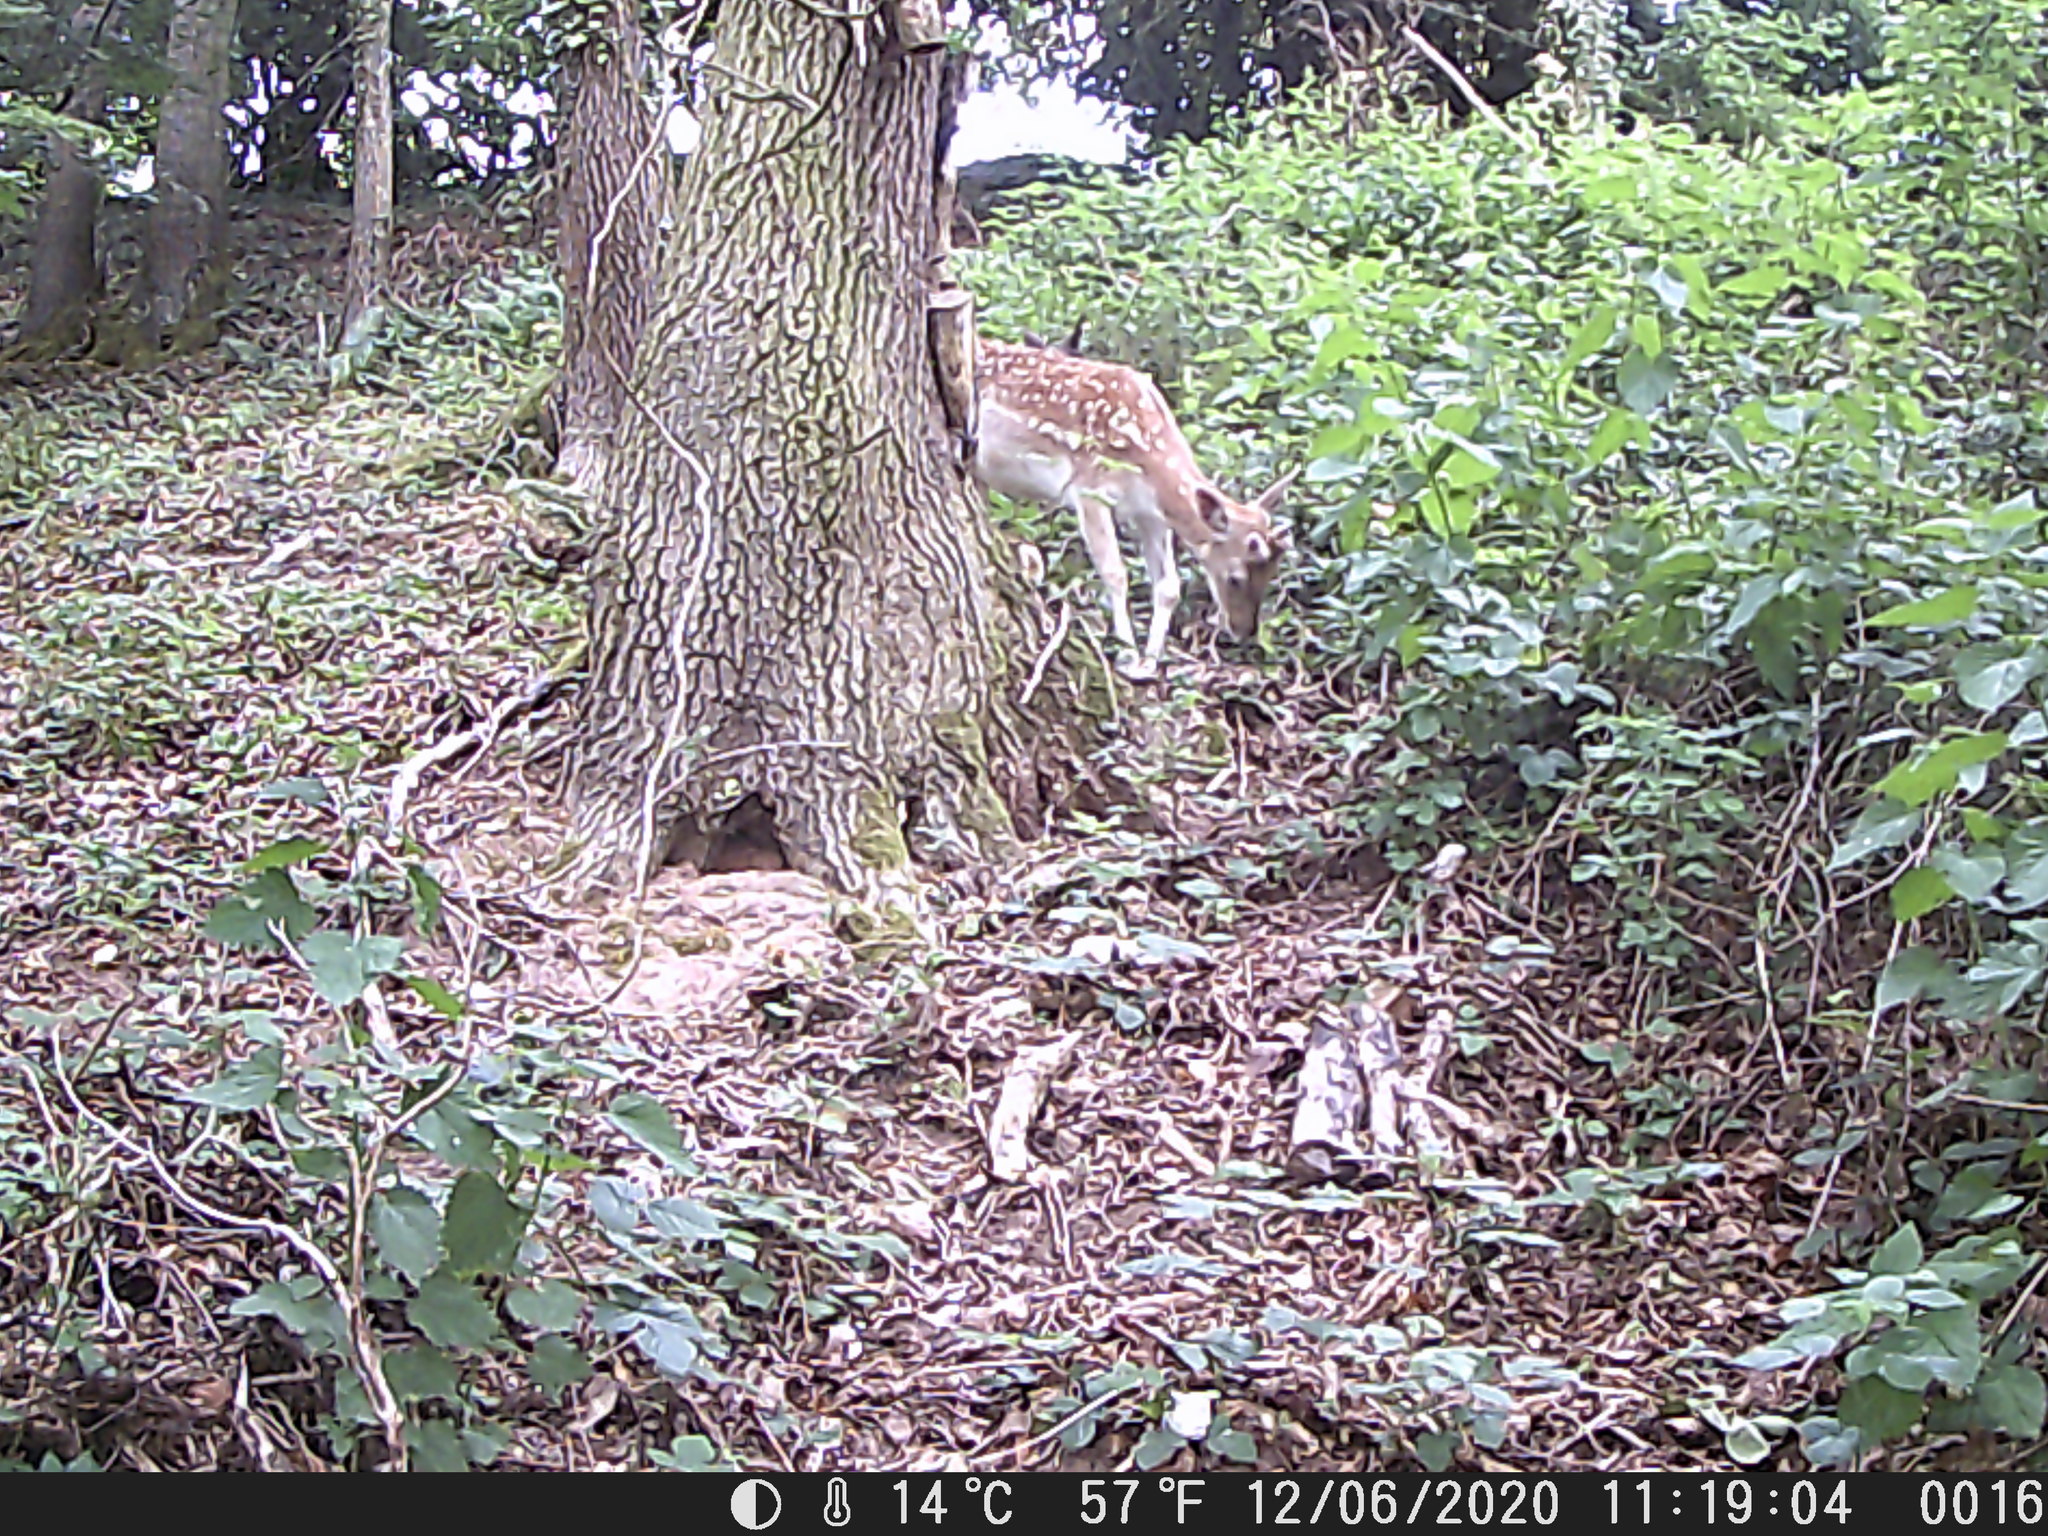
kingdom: Animalia
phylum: Chordata
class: Mammalia
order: Artiodactyla
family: Cervidae
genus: Dama
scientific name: Dama dama
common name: Fallow deer
